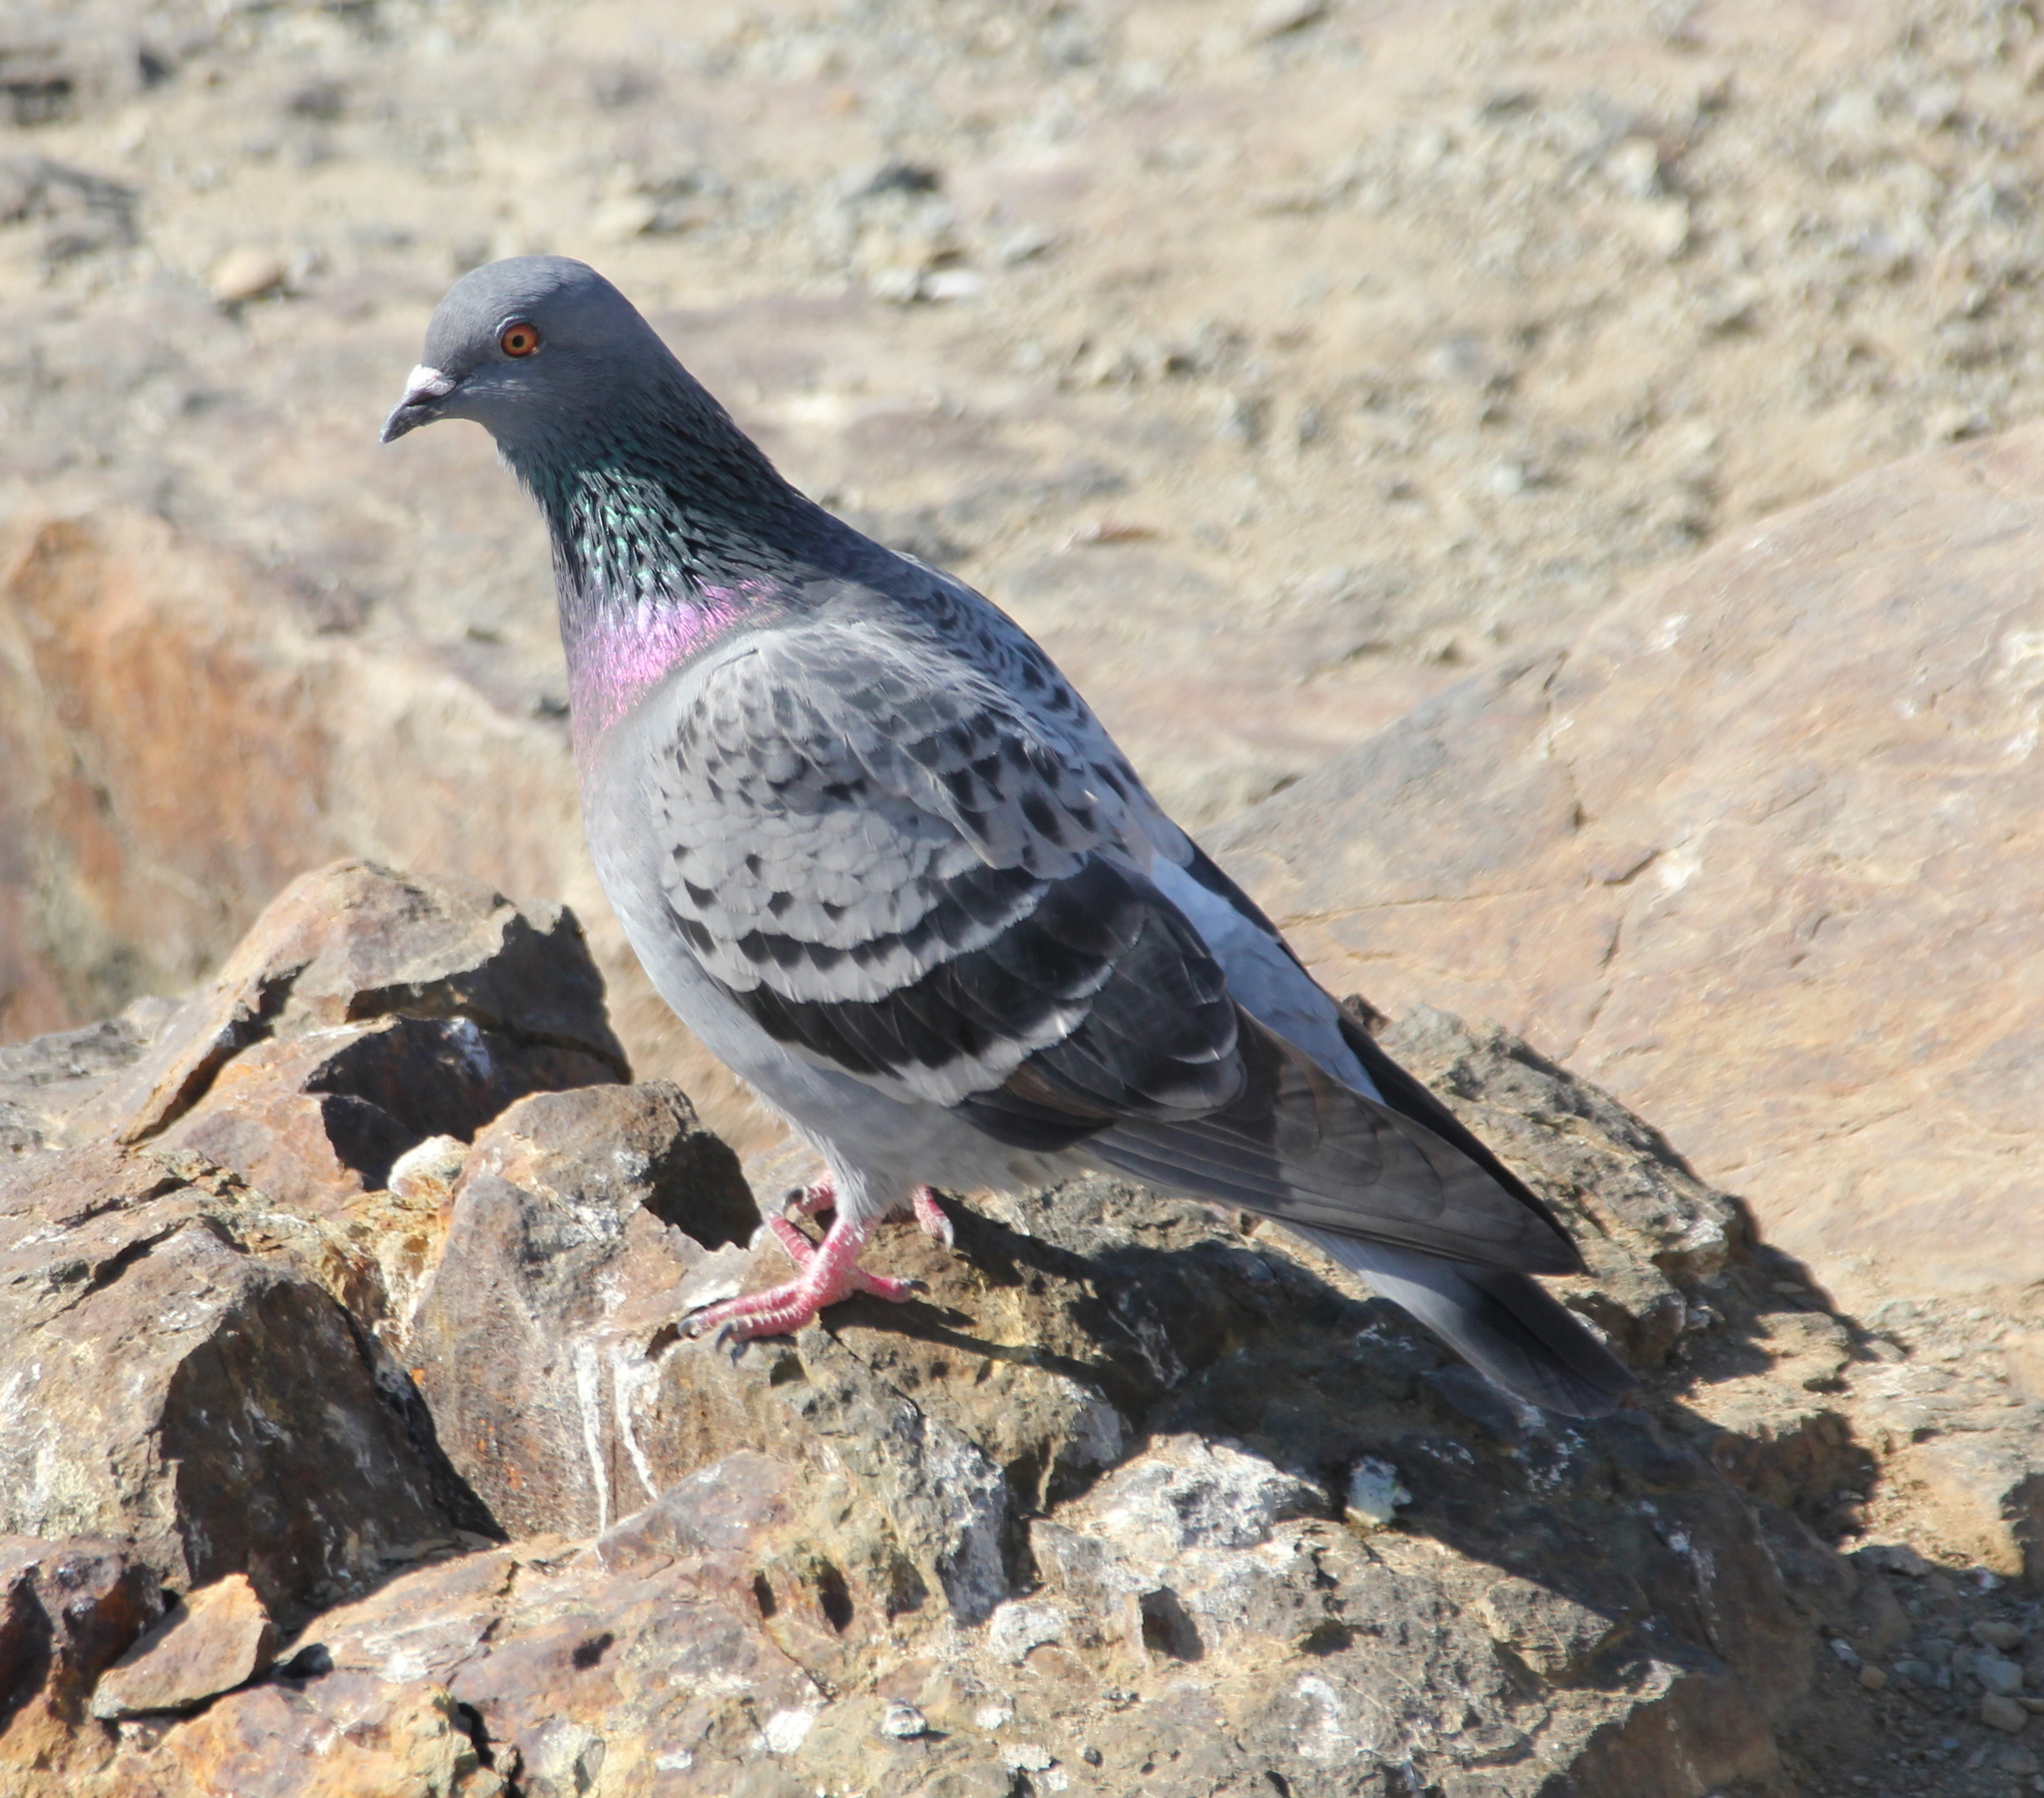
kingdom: Animalia
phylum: Chordata
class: Aves
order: Columbiformes
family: Columbidae
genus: Columba
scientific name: Columba livia
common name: Rock pigeon
